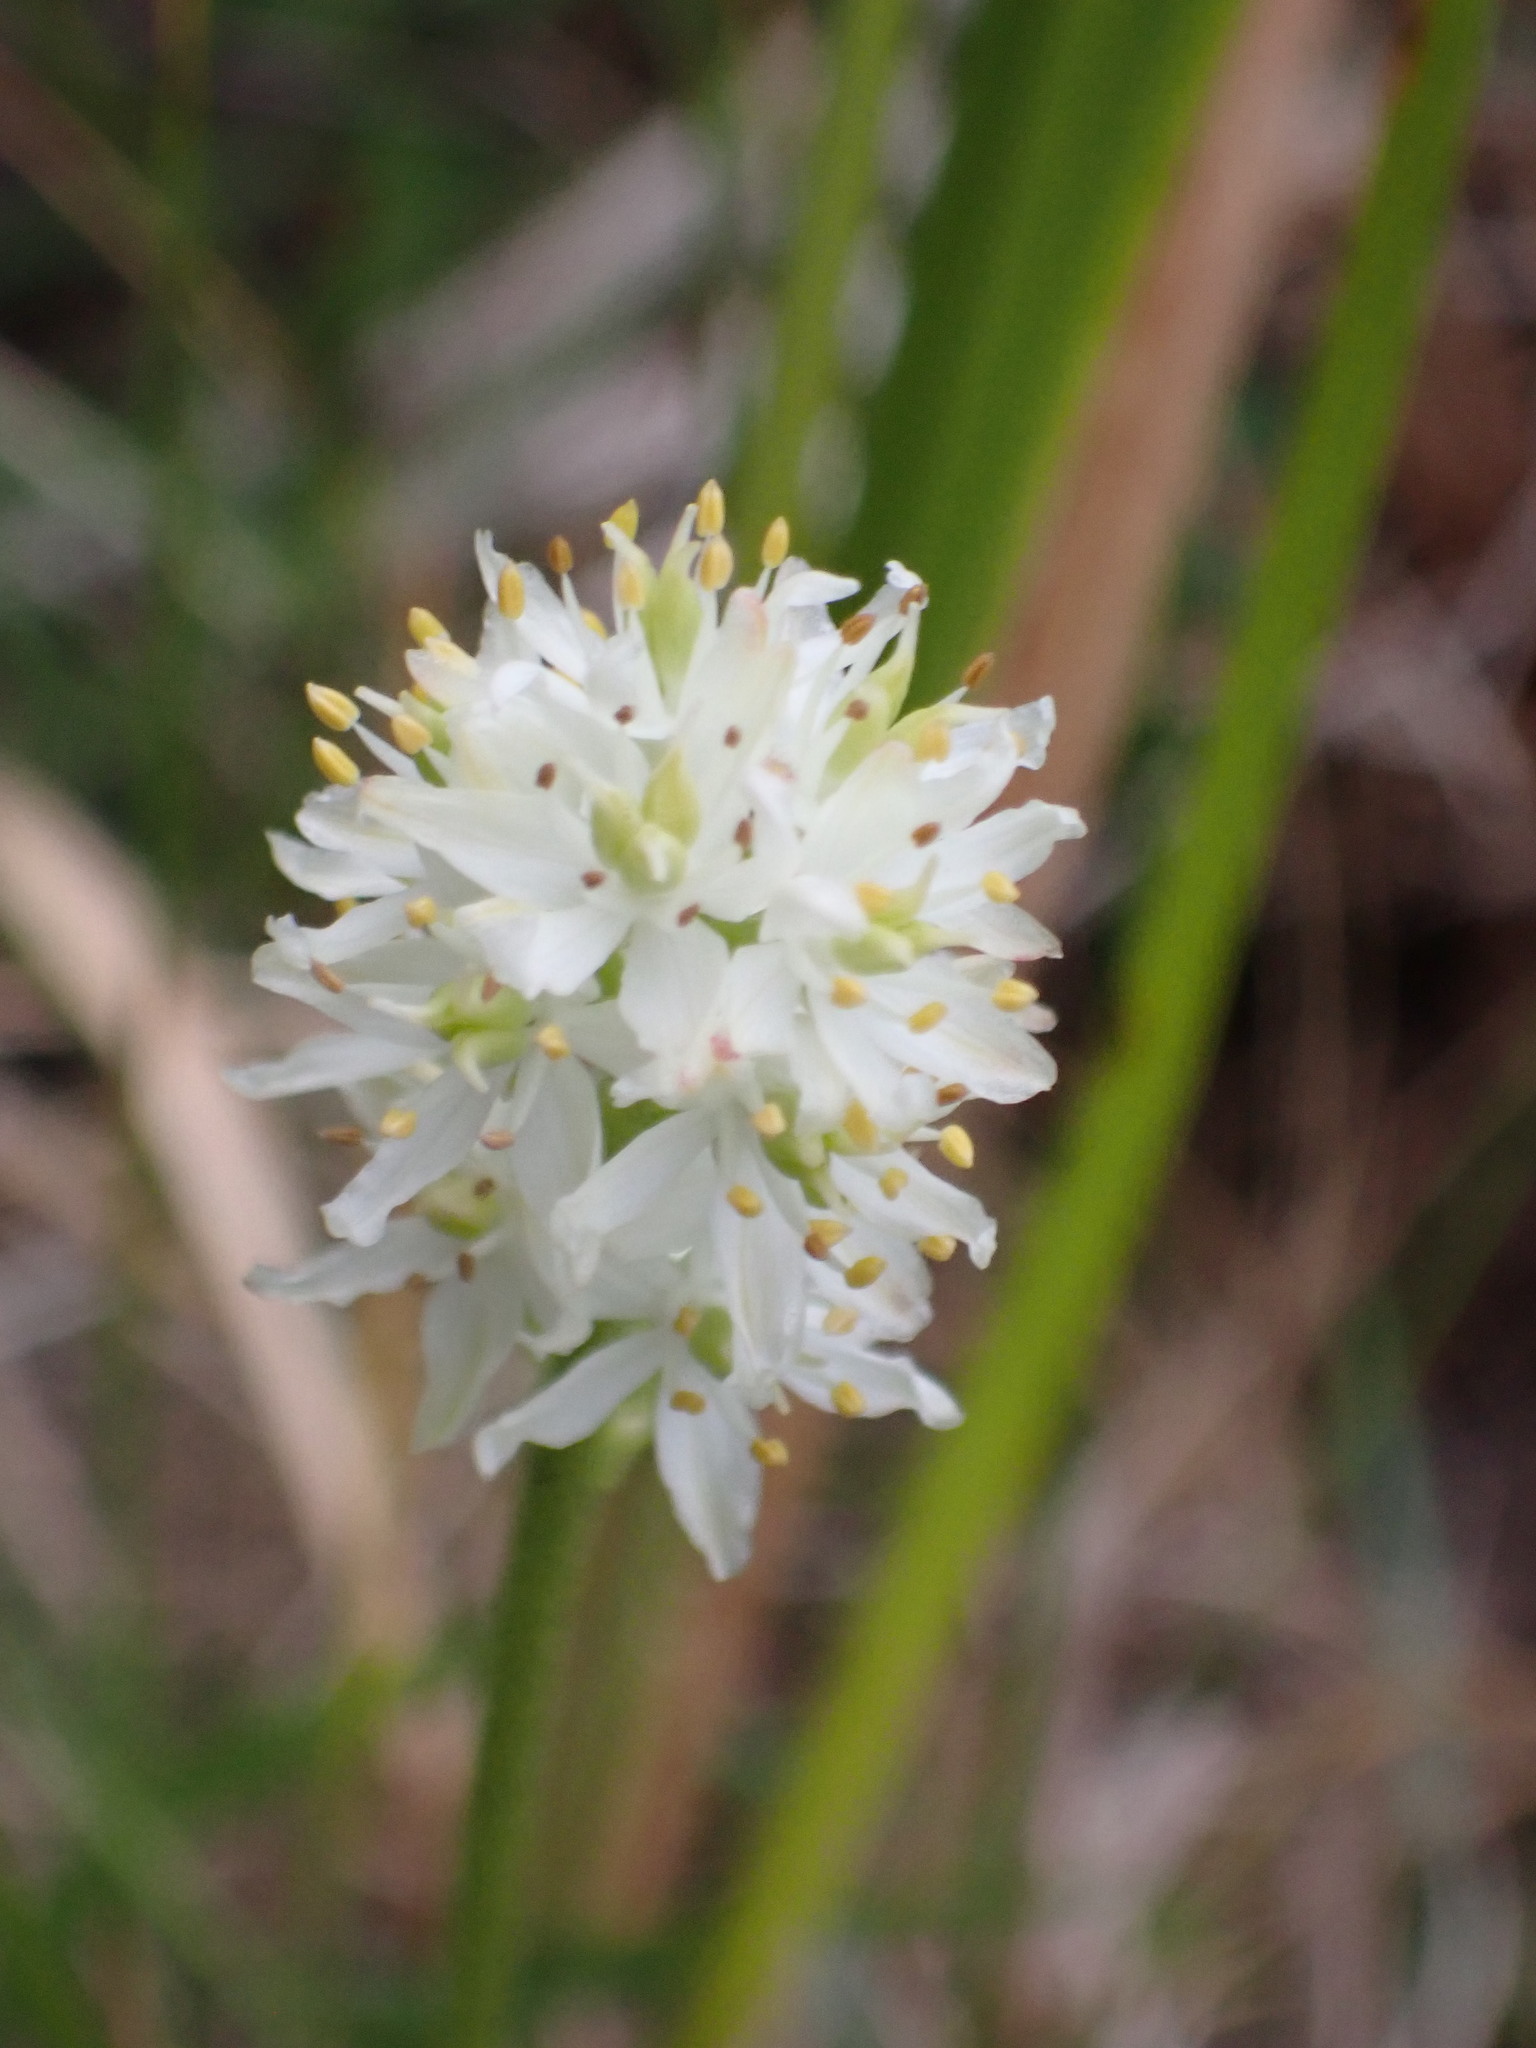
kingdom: Plantae
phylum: Tracheophyta
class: Liliopsida
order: Alismatales
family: Tofieldiaceae
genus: Triantha
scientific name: Triantha glutinosa
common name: Glutinous tofieldia
